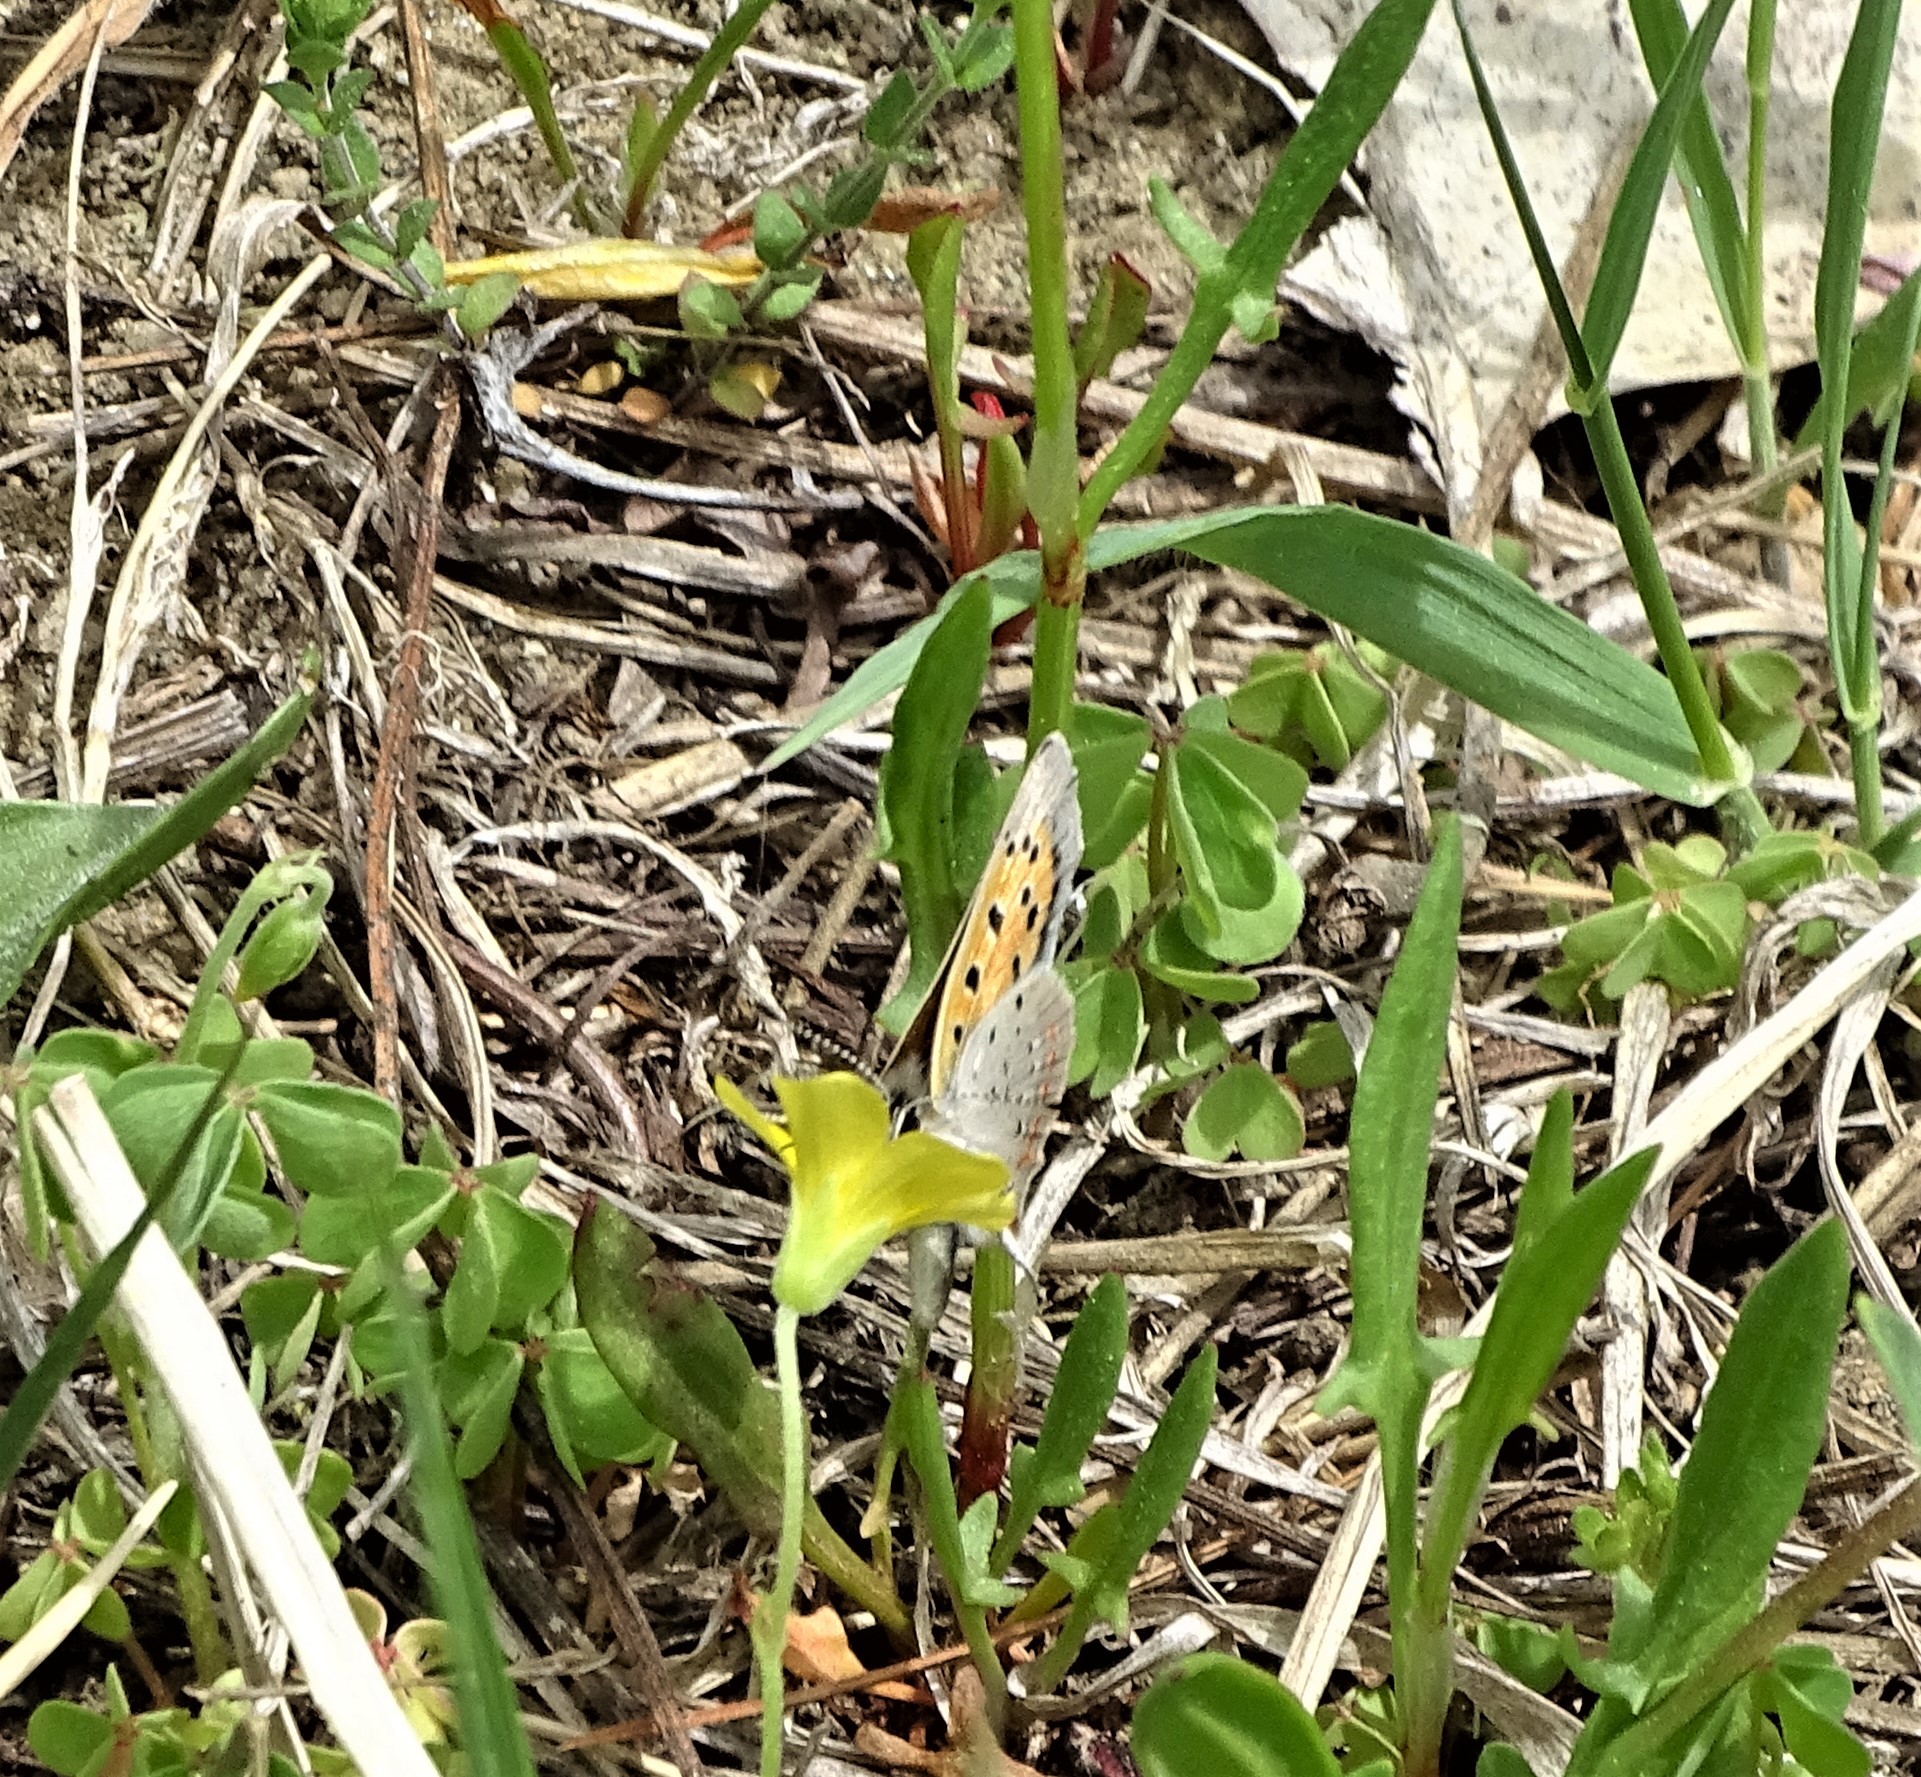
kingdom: Animalia
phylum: Arthropoda
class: Insecta
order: Lepidoptera
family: Lycaenidae
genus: Lycaena
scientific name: Lycaena hypophlaeas
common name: American copper
